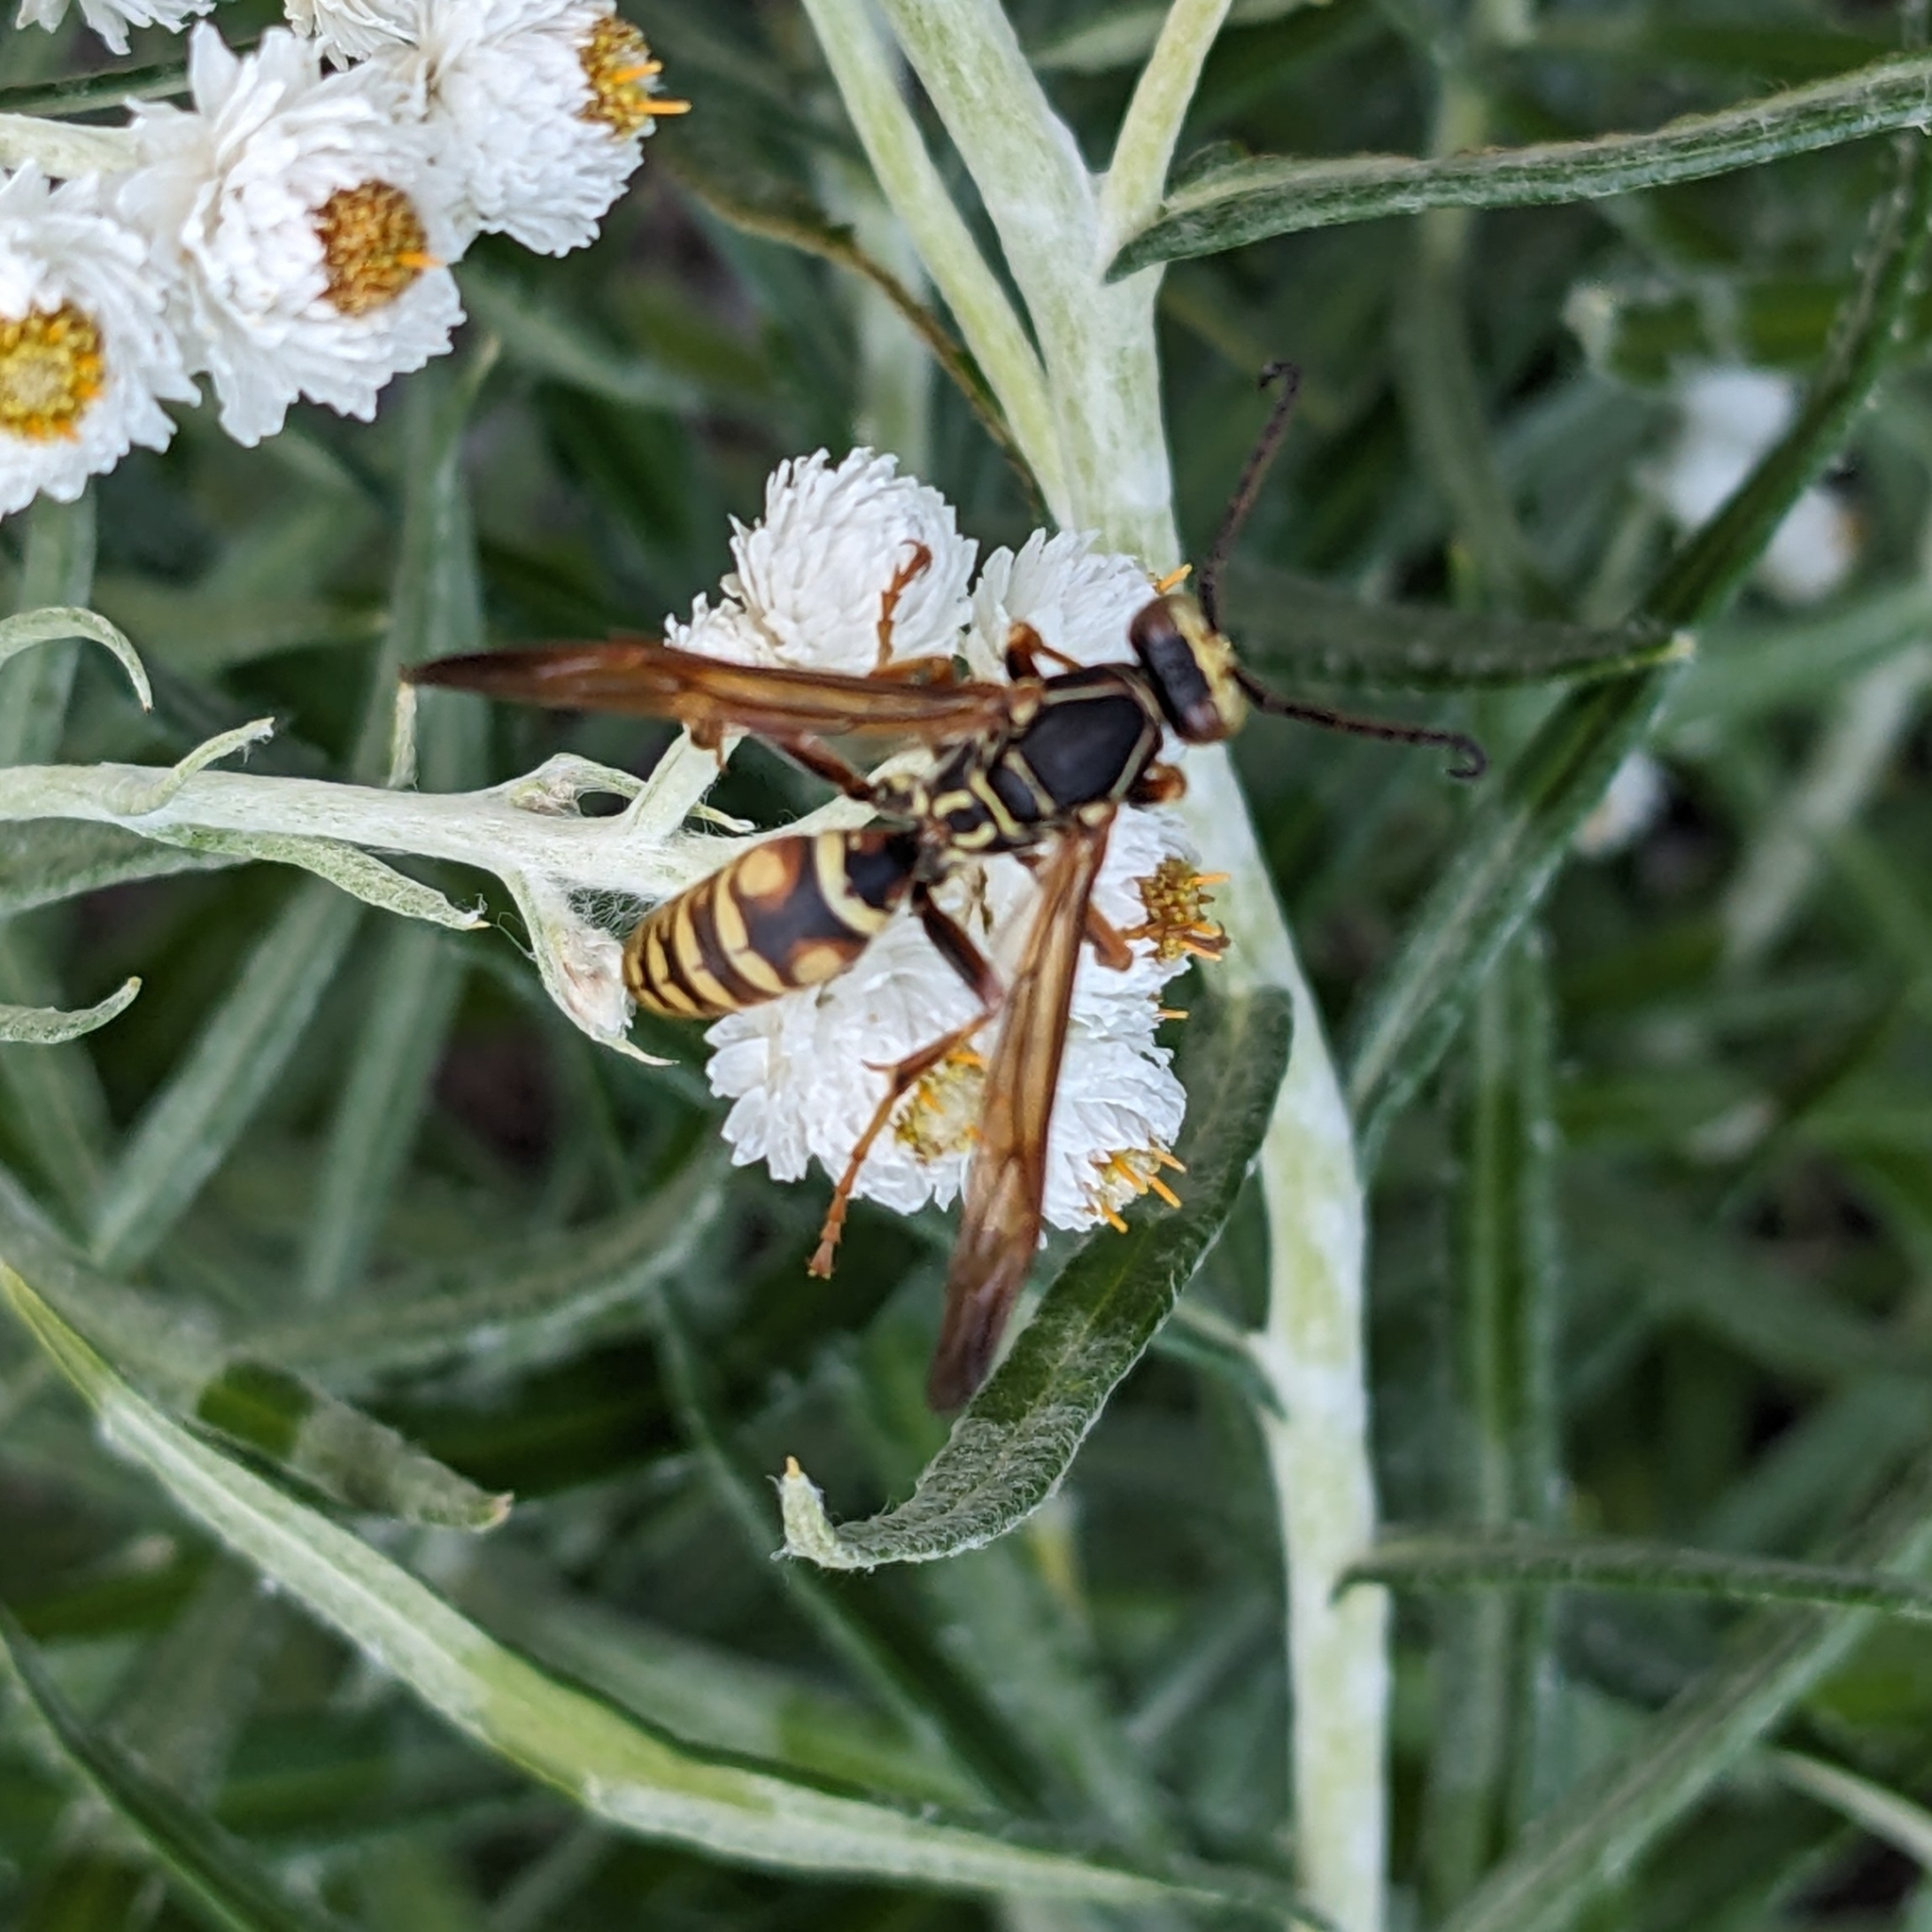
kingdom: Animalia
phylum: Arthropoda
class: Insecta
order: Hymenoptera
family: Eumenidae
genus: Polistes
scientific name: Polistes fuscatus
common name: Dark paper wasp
